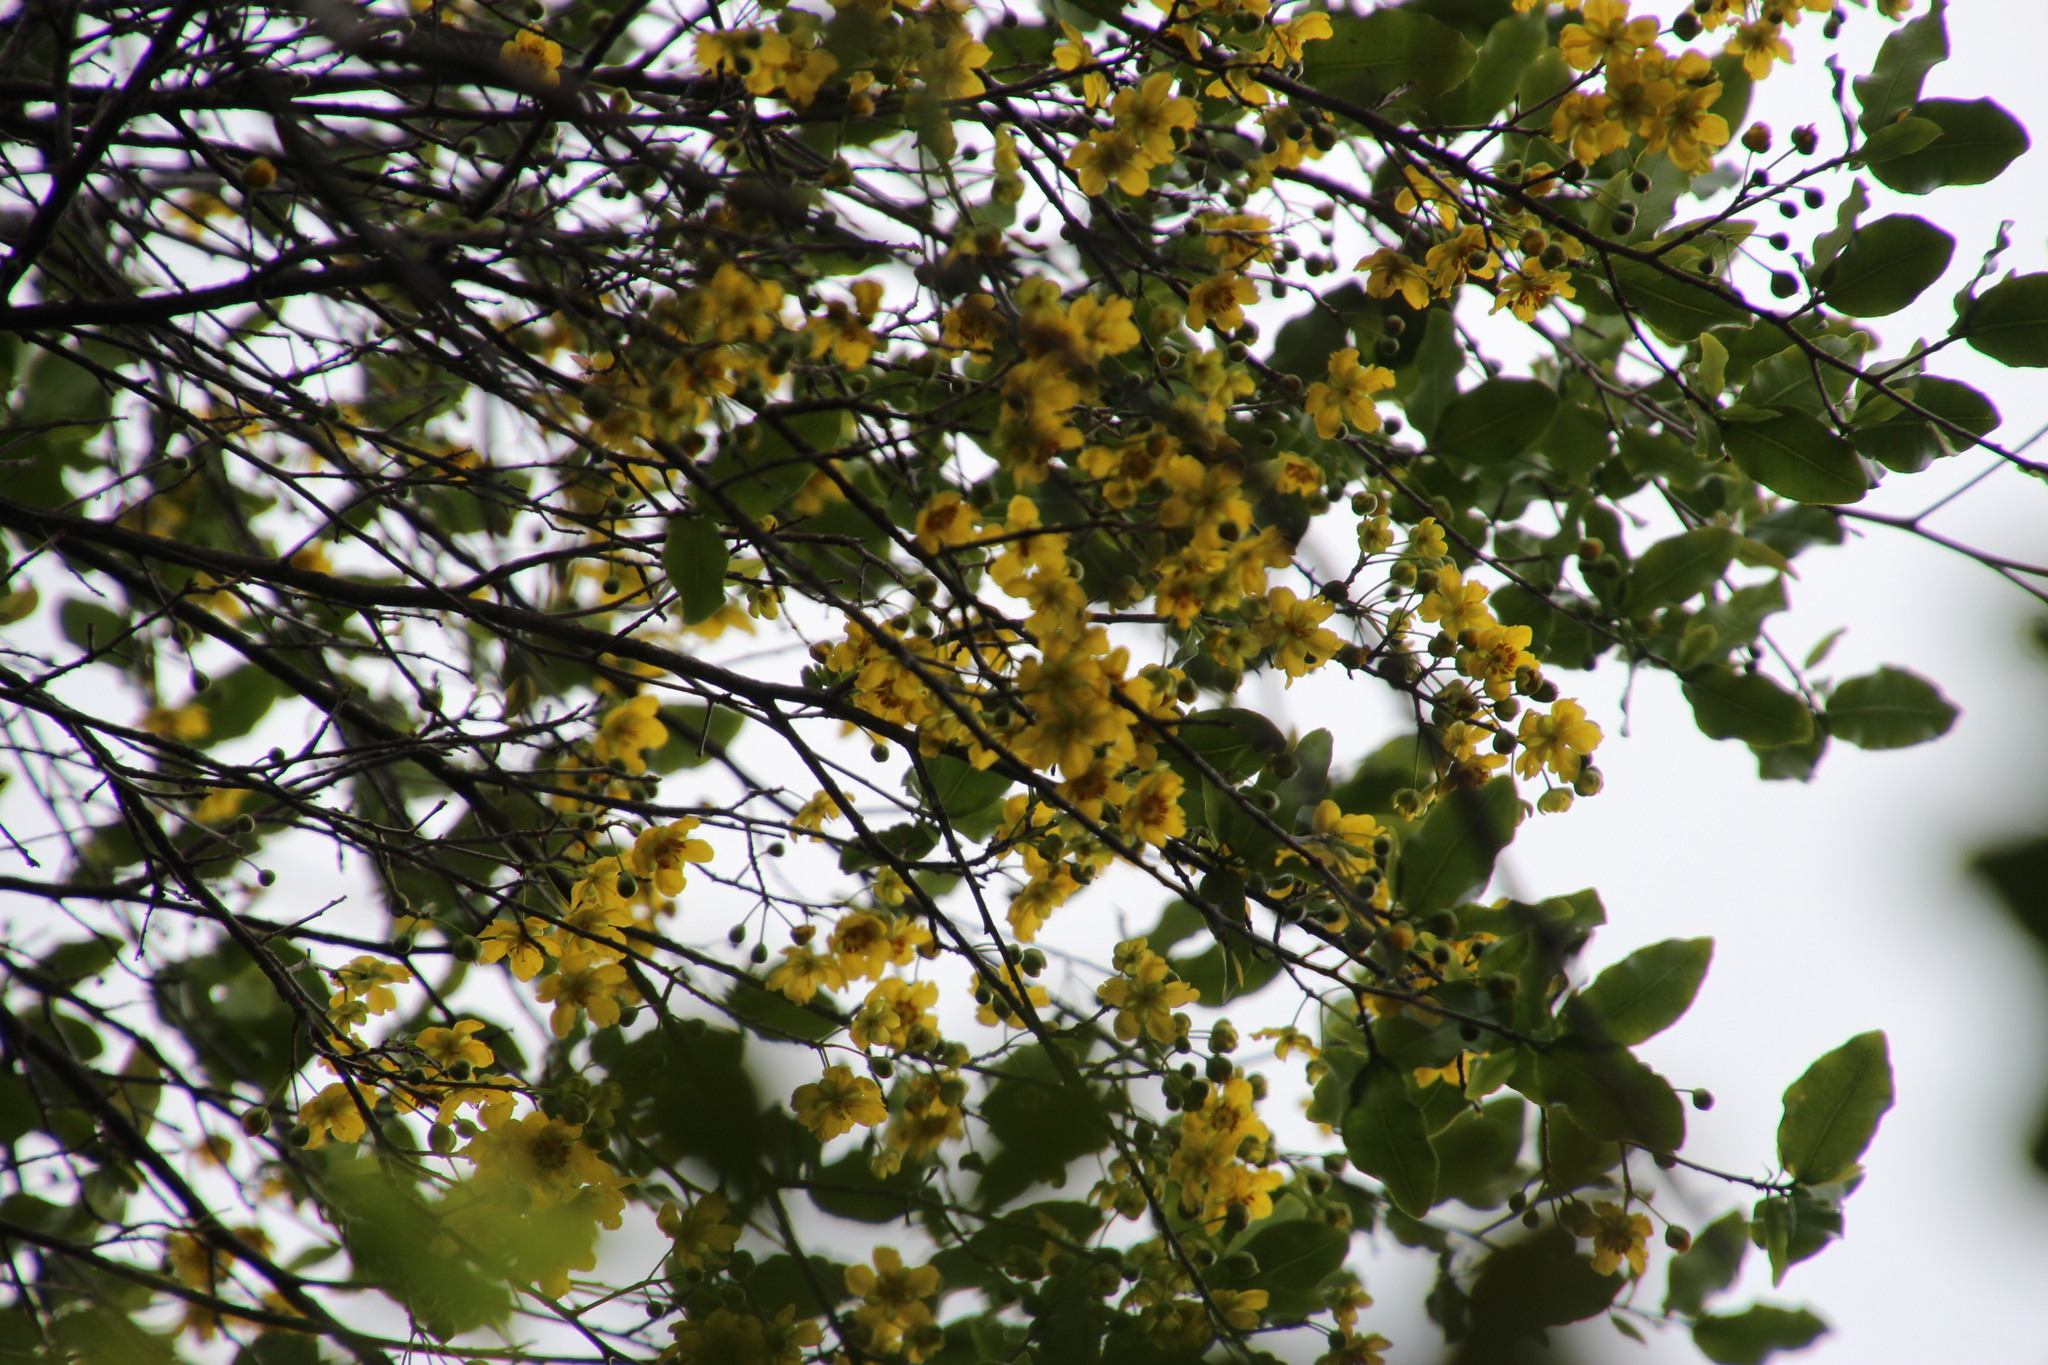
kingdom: Plantae
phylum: Tracheophyta
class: Magnoliopsida
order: Malpighiales
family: Ochnaceae
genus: Ochna
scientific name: Ochna arborea
